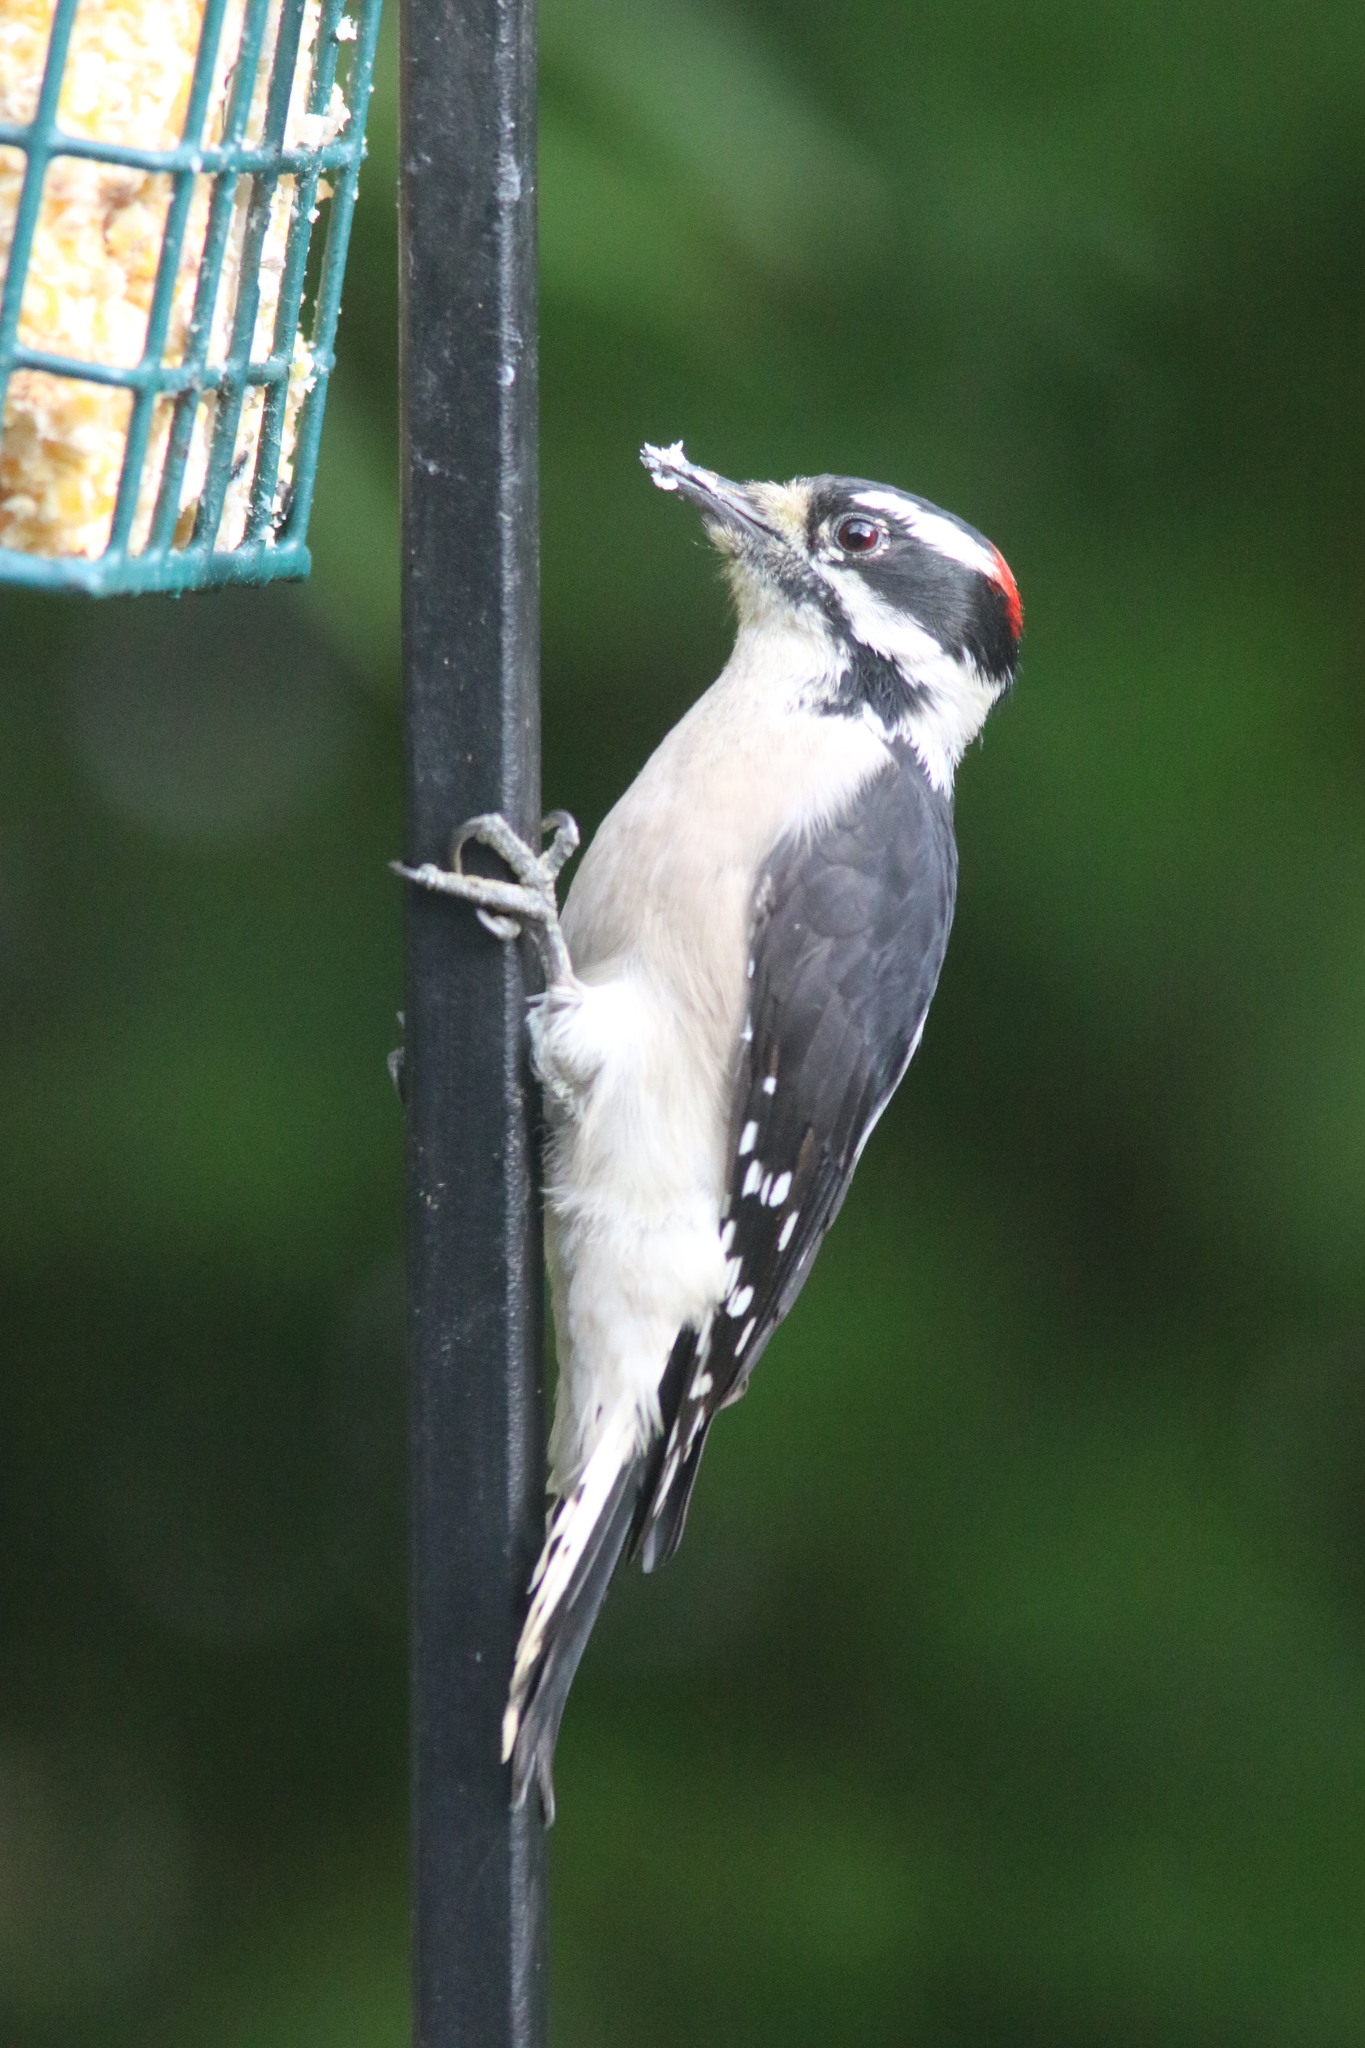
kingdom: Animalia
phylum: Chordata
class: Aves
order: Piciformes
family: Picidae
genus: Dryobates
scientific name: Dryobates pubescens
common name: Downy woodpecker
